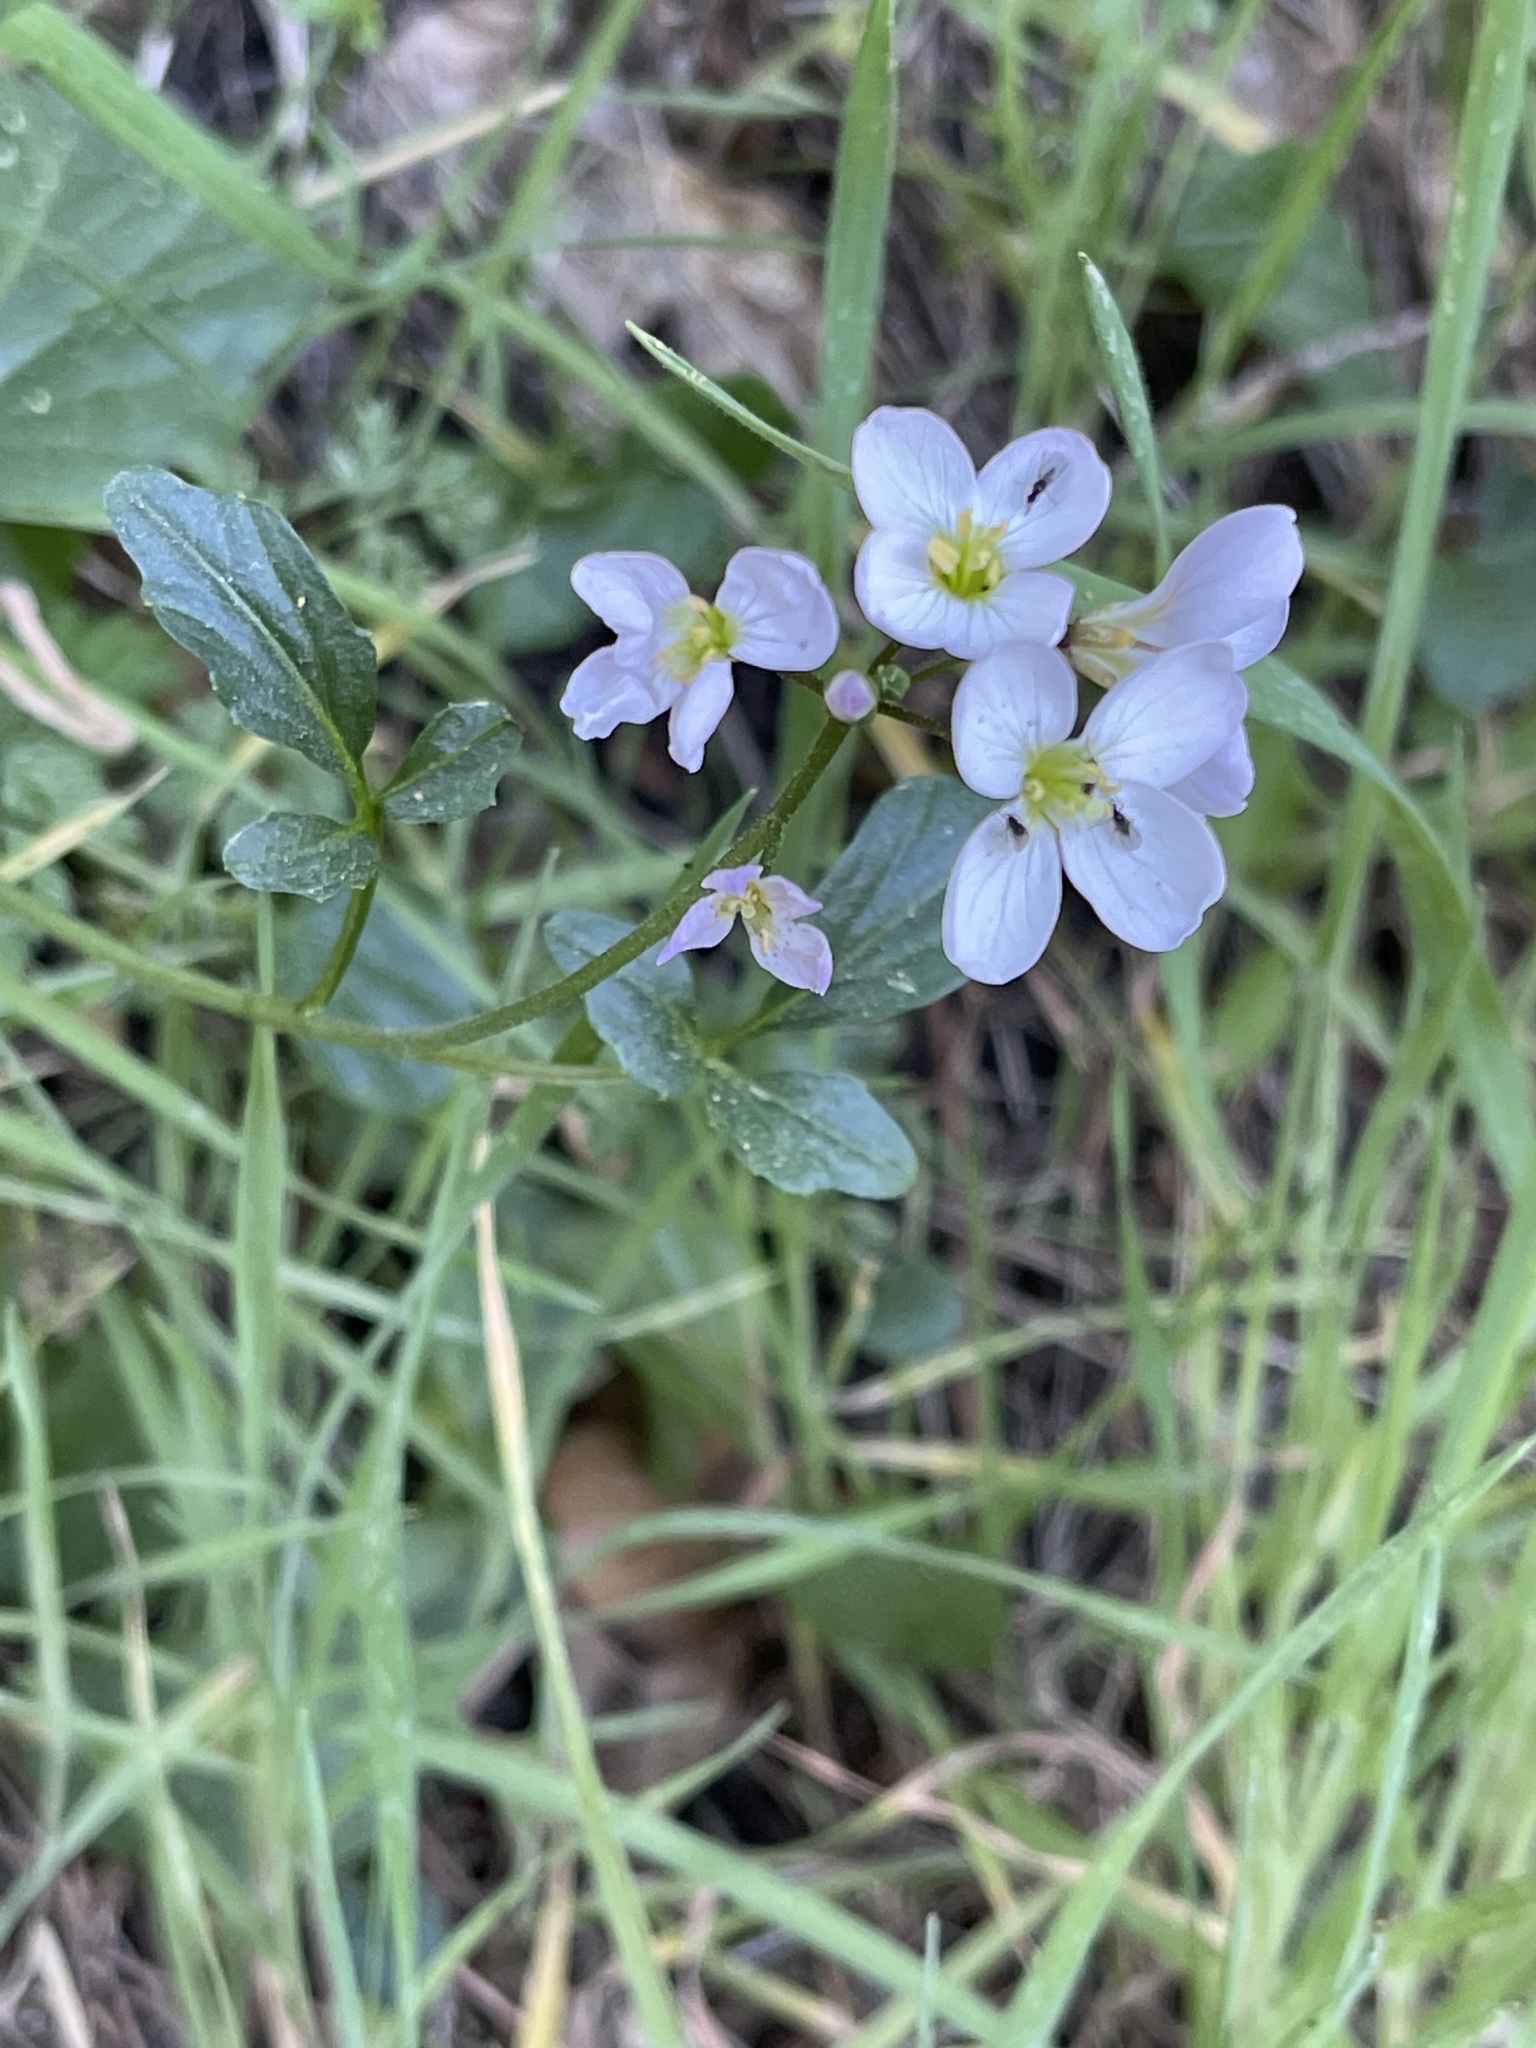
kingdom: Plantae
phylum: Tracheophyta
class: Magnoliopsida
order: Brassicales
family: Brassicaceae
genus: Cardamine
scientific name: Cardamine californica
